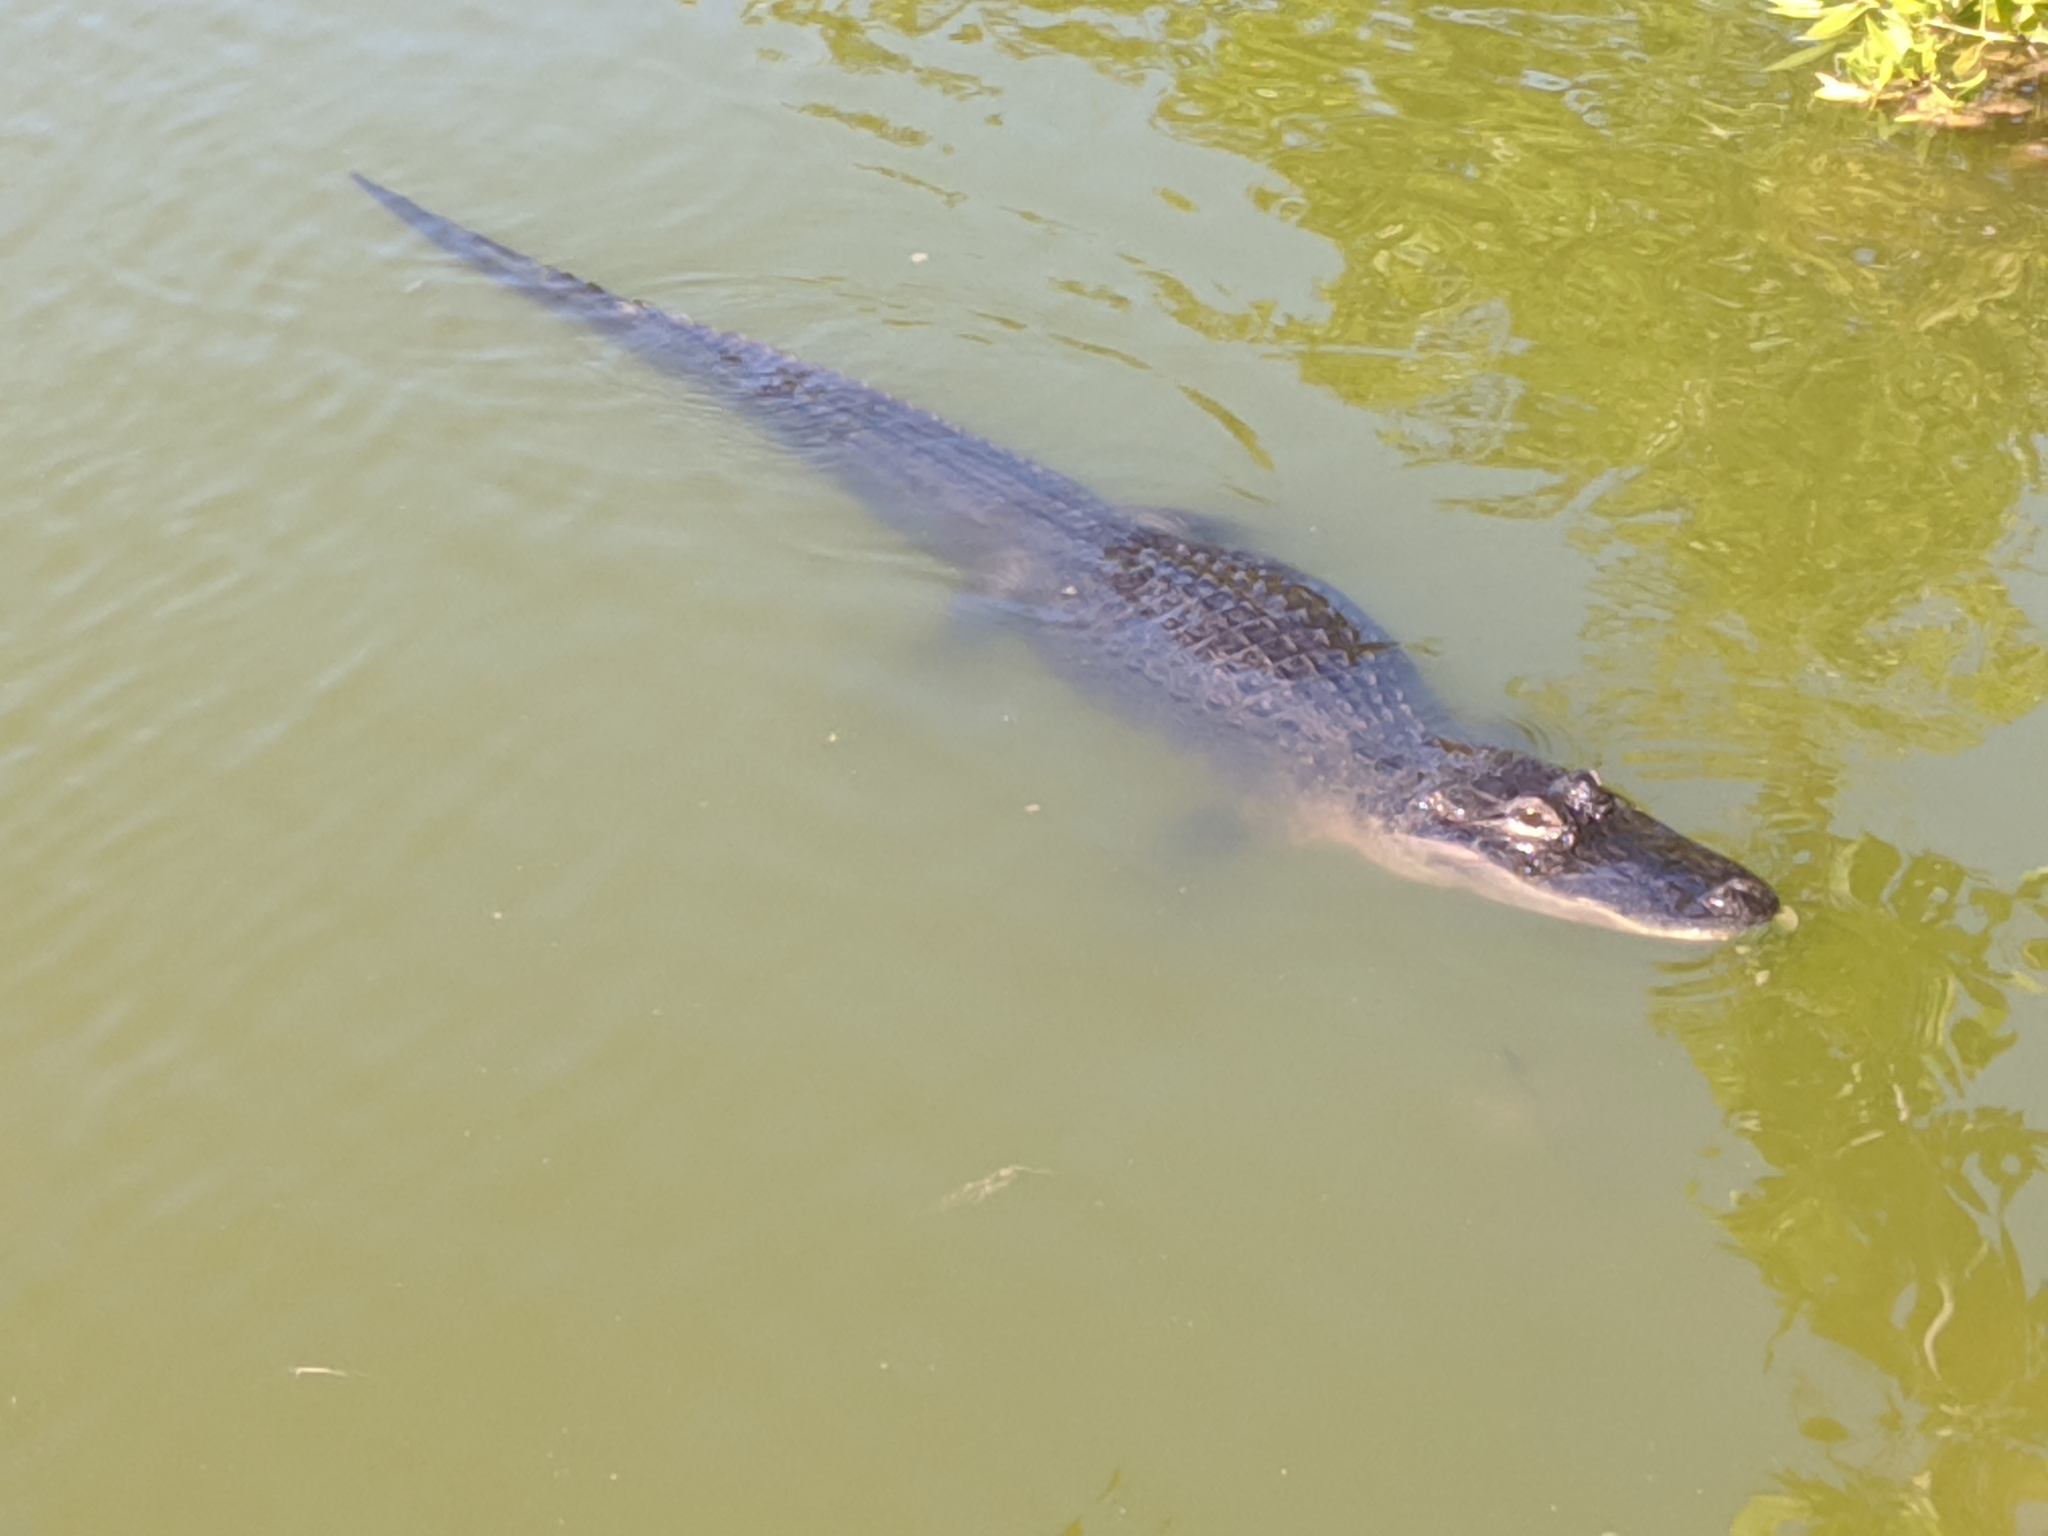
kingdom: Animalia
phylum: Chordata
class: Crocodylia
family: Alligatoridae
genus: Alligator
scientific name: Alligator mississippiensis
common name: American alligator
